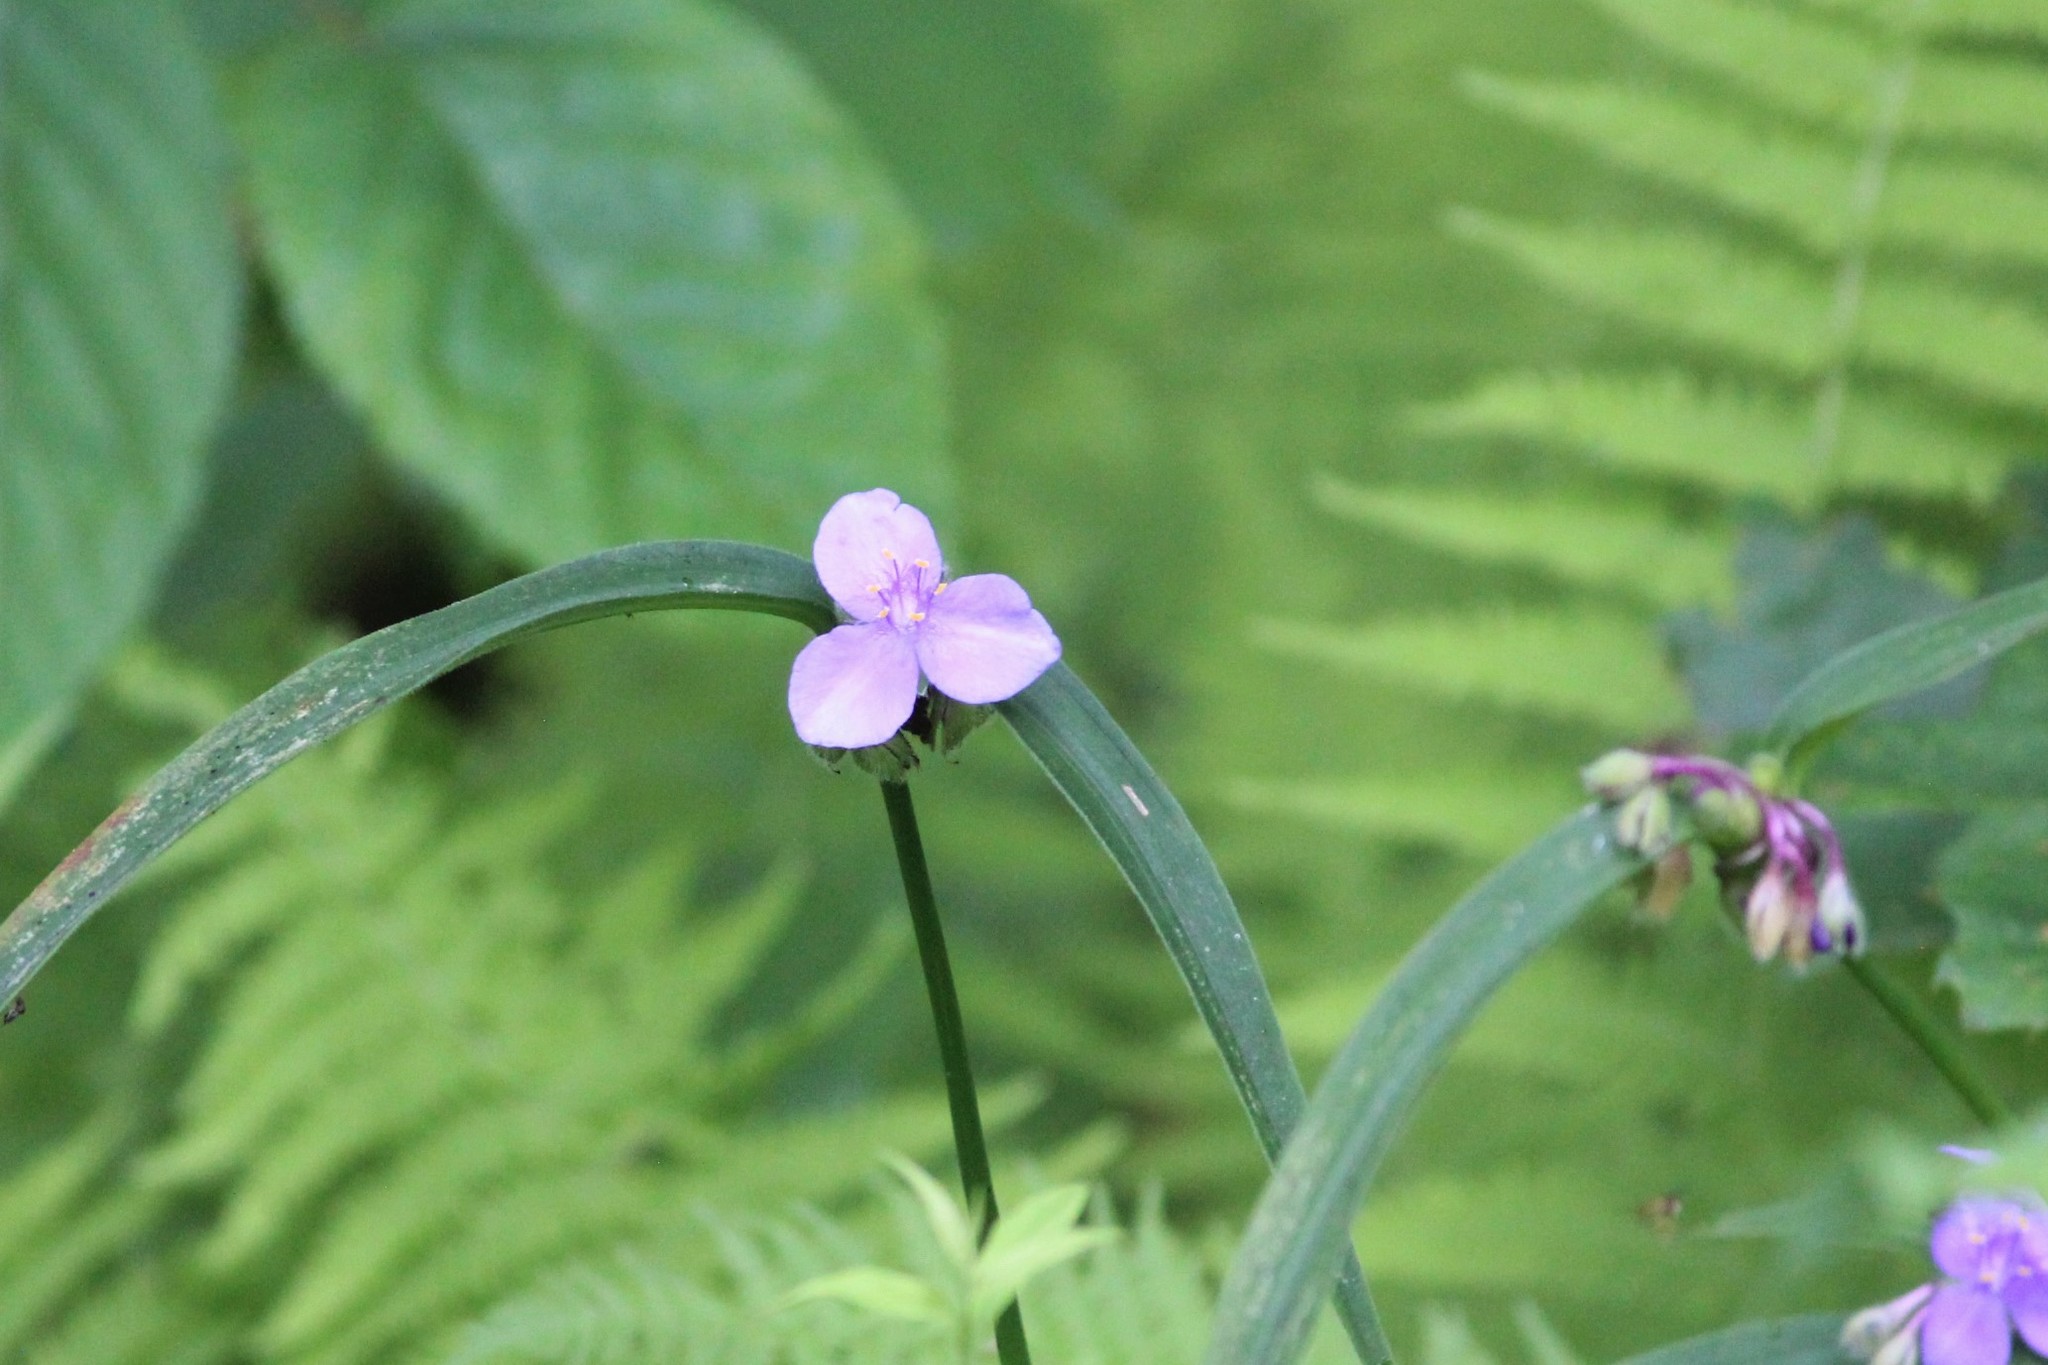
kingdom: Plantae
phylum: Tracheophyta
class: Liliopsida
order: Commelinales
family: Commelinaceae
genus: Tradescantia
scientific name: Tradescantia subaspera
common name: Wide-leaf spiderwort
